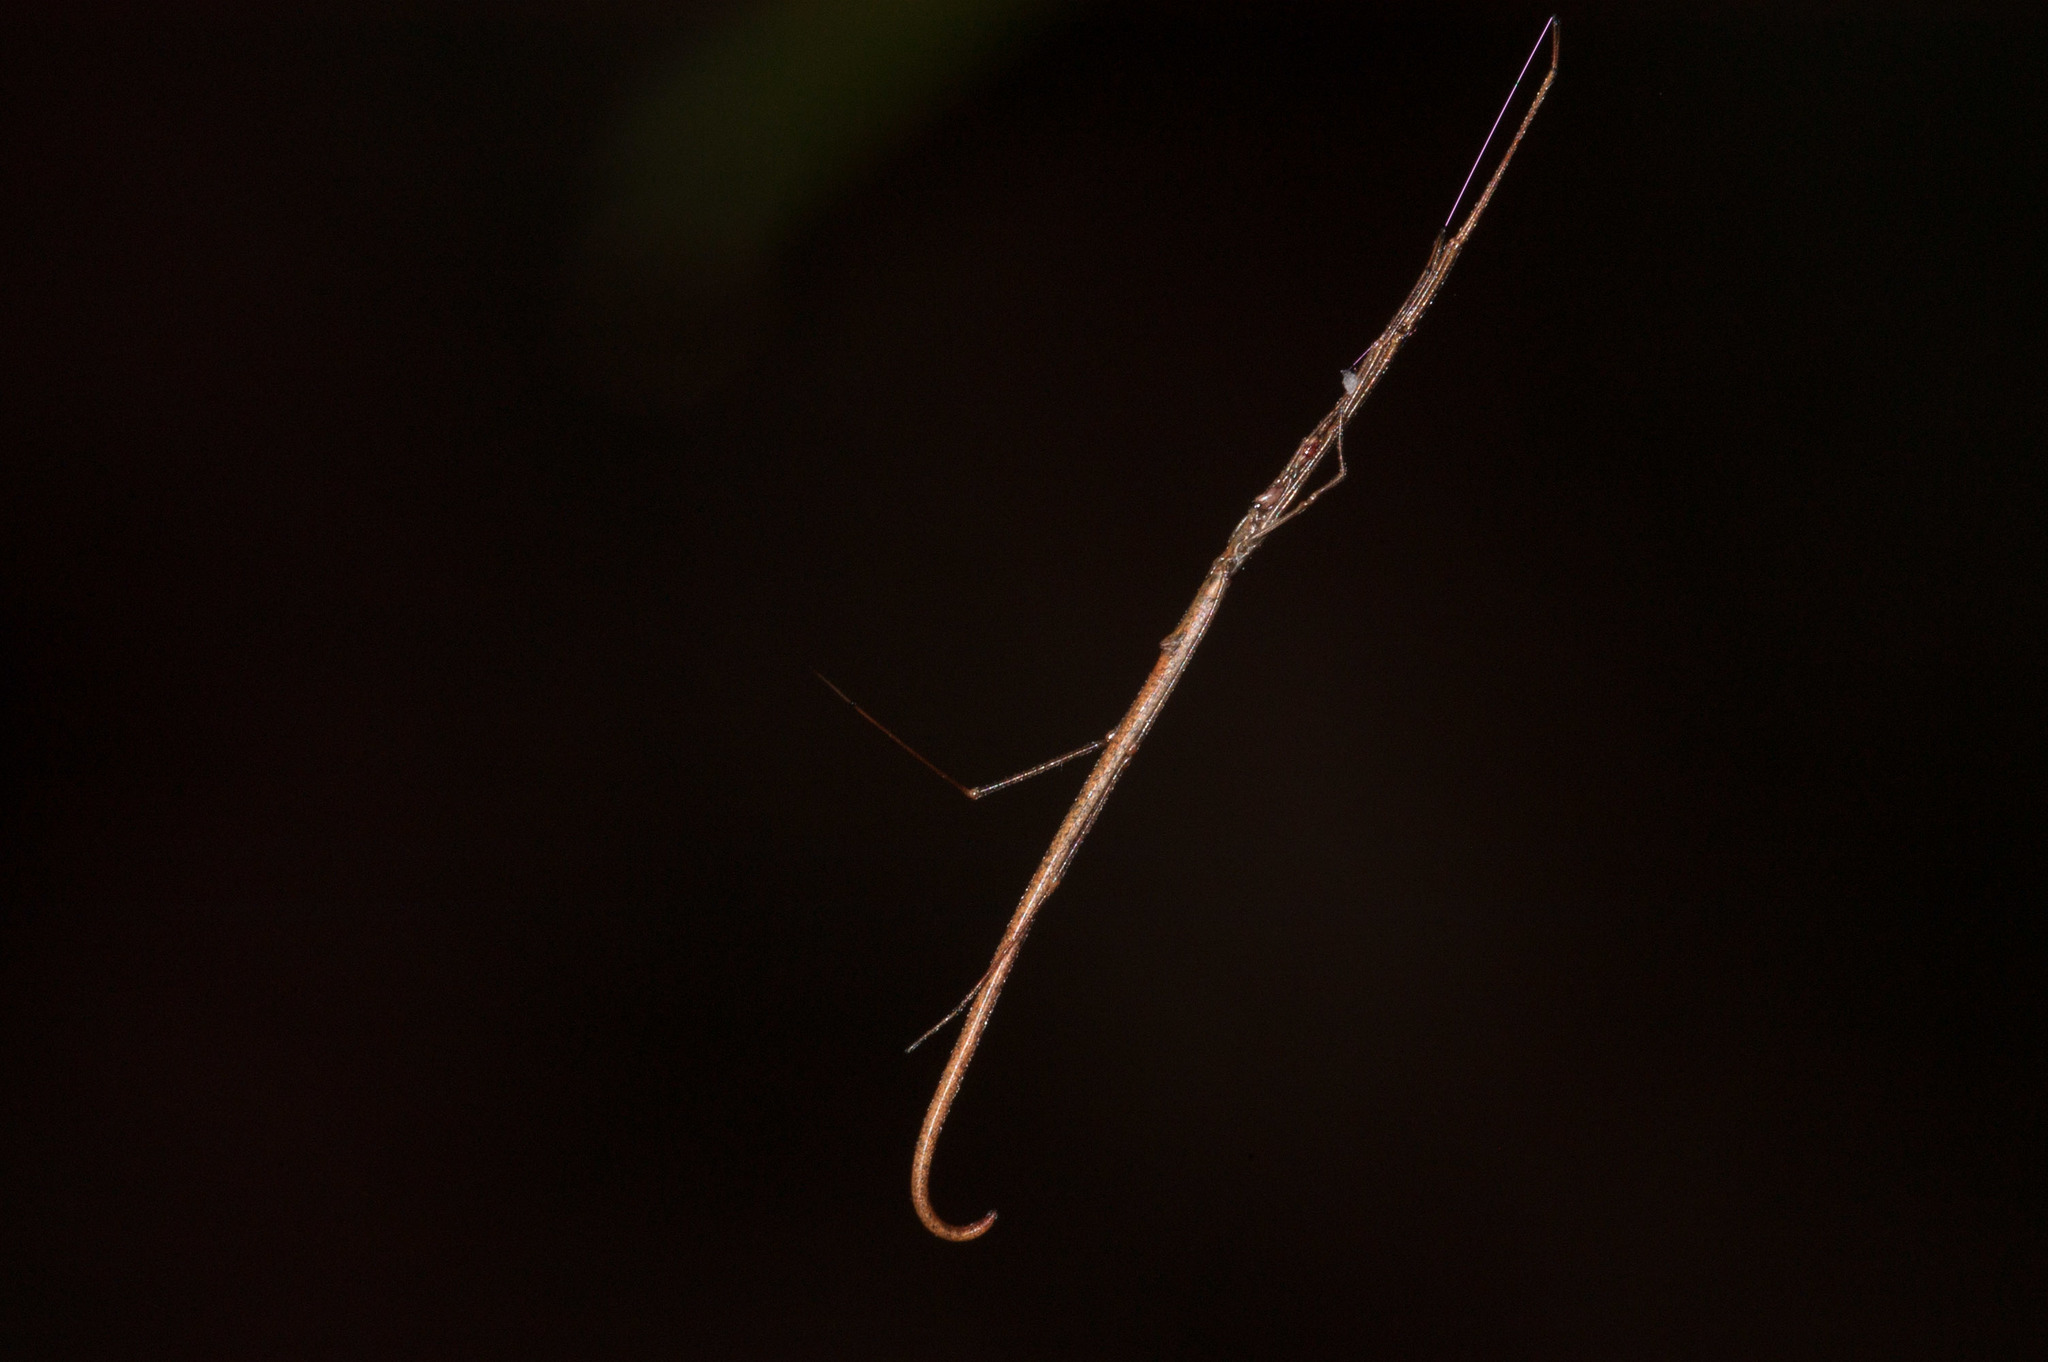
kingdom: Animalia
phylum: Arthropoda
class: Arachnida
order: Araneae
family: Theridiidae
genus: Ariamnes
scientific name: Ariamnes colubrinus
